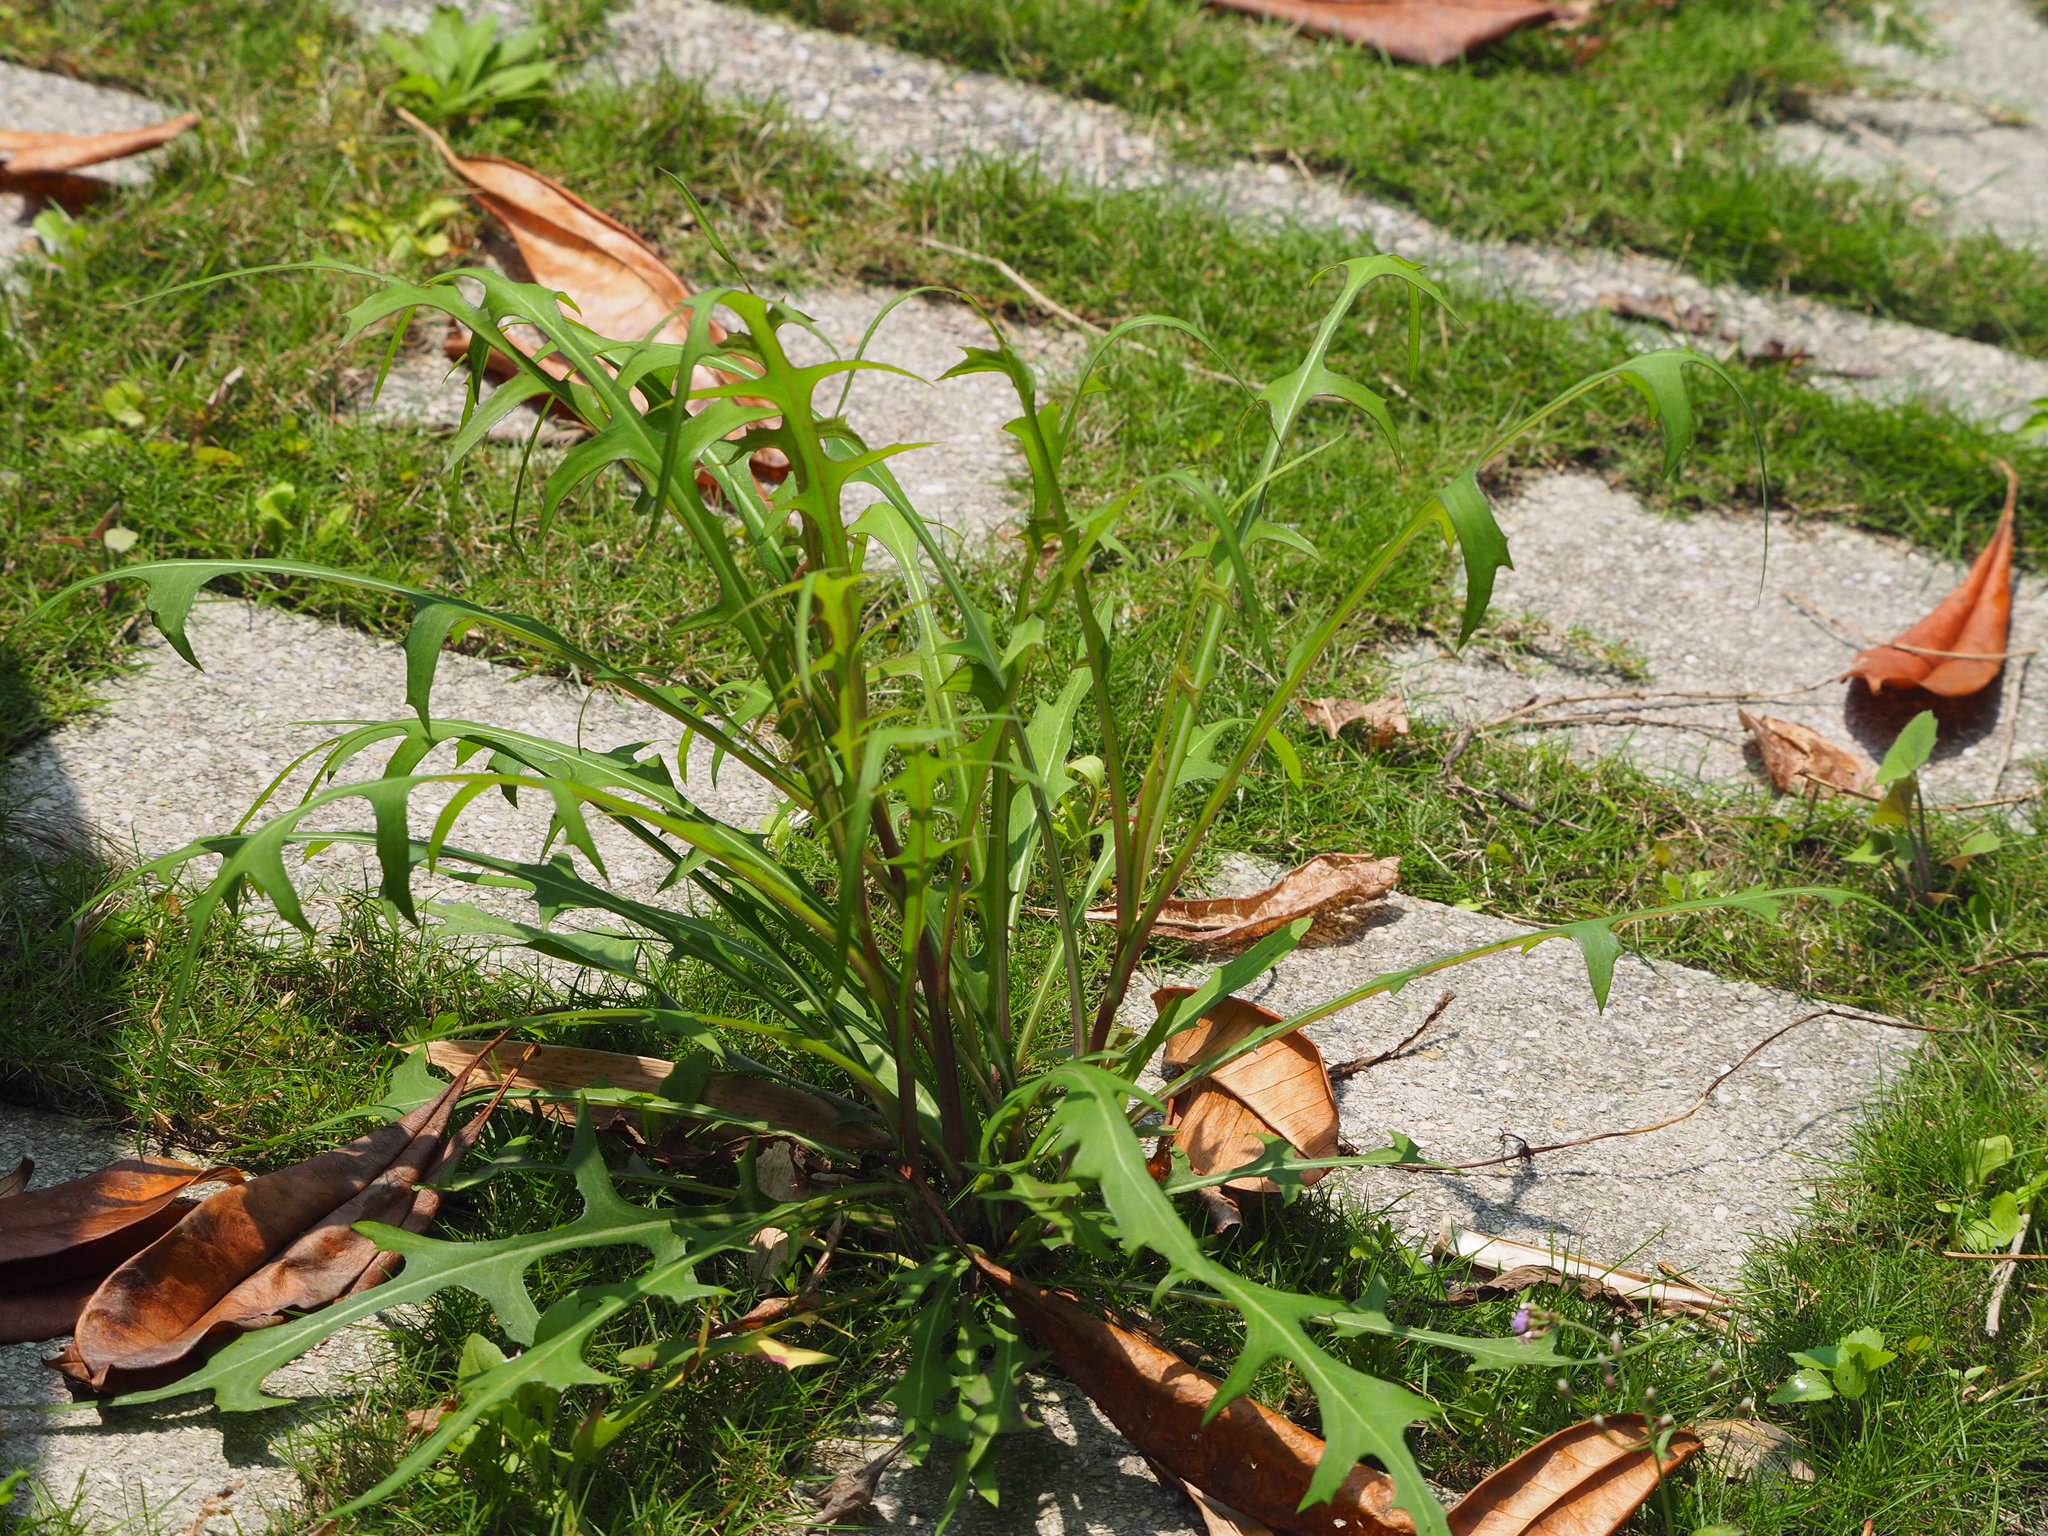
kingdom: Plantae
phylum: Tracheophyta
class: Magnoliopsida
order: Asterales
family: Asteraceae
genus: Lactuca
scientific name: Lactuca indica
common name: Wild lettuce
